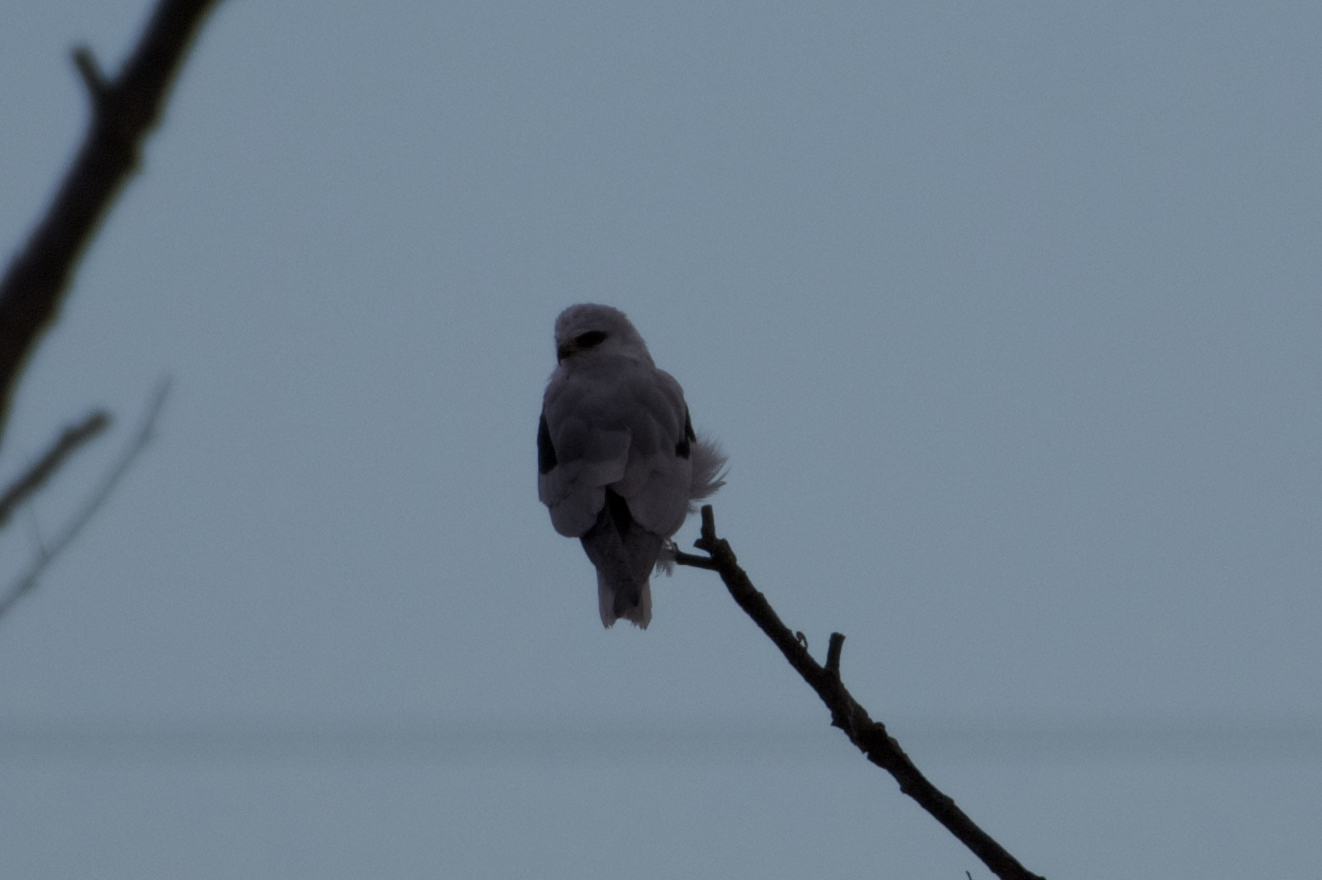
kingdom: Animalia
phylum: Chordata
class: Aves
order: Accipitriformes
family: Accipitridae
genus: Elanus
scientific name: Elanus leucurus
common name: White-tailed kite
